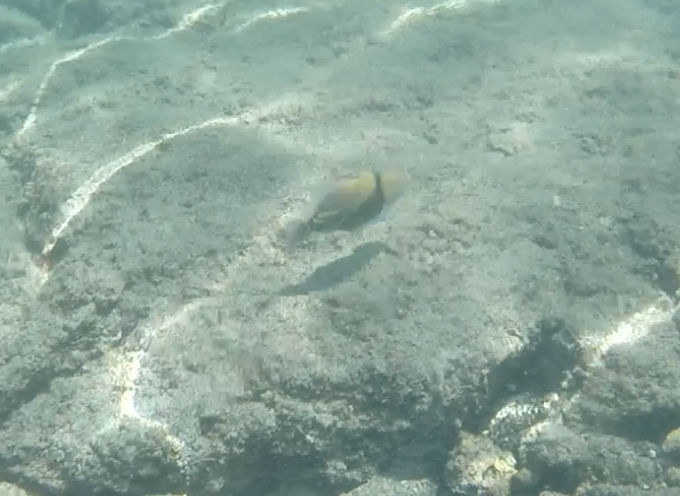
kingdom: Animalia
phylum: Chordata
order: Tetraodontiformes
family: Balistidae
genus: Rhinecanthus
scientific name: Rhinecanthus rectangulus
